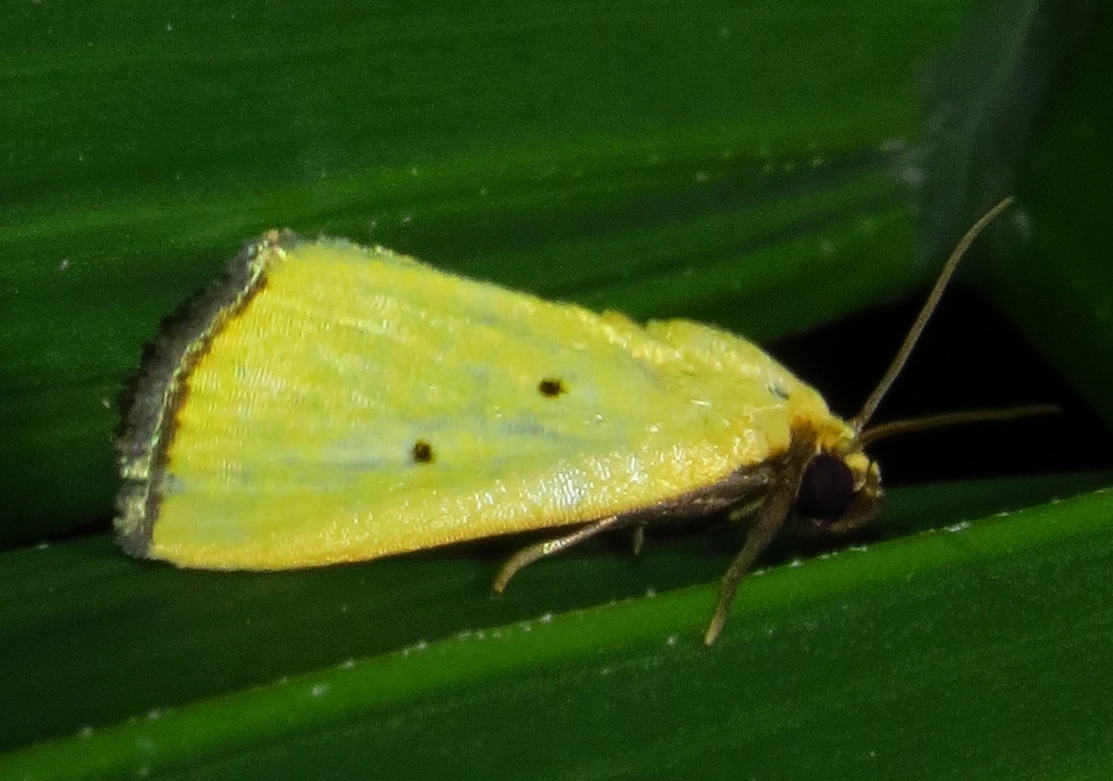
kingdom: Animalia
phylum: Arthropoda
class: Insecta
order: Lepidoptera
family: Noctuidae
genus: Marimatha
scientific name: Marimatha nigrofimbria
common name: Black-bordered lemon moth
